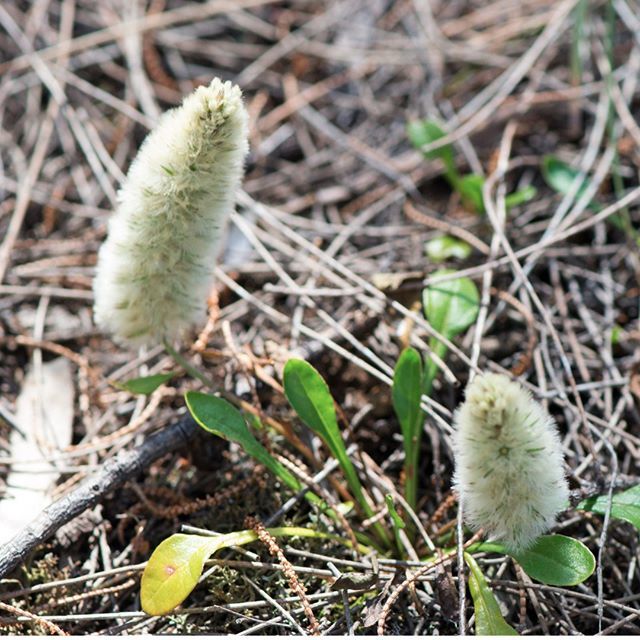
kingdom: Plantae
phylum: Tracheophyta
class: Magnoliopsida
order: Caryophyllales
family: Amaranthaceae
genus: Ptilotus
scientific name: Ptilotus spathulatus
